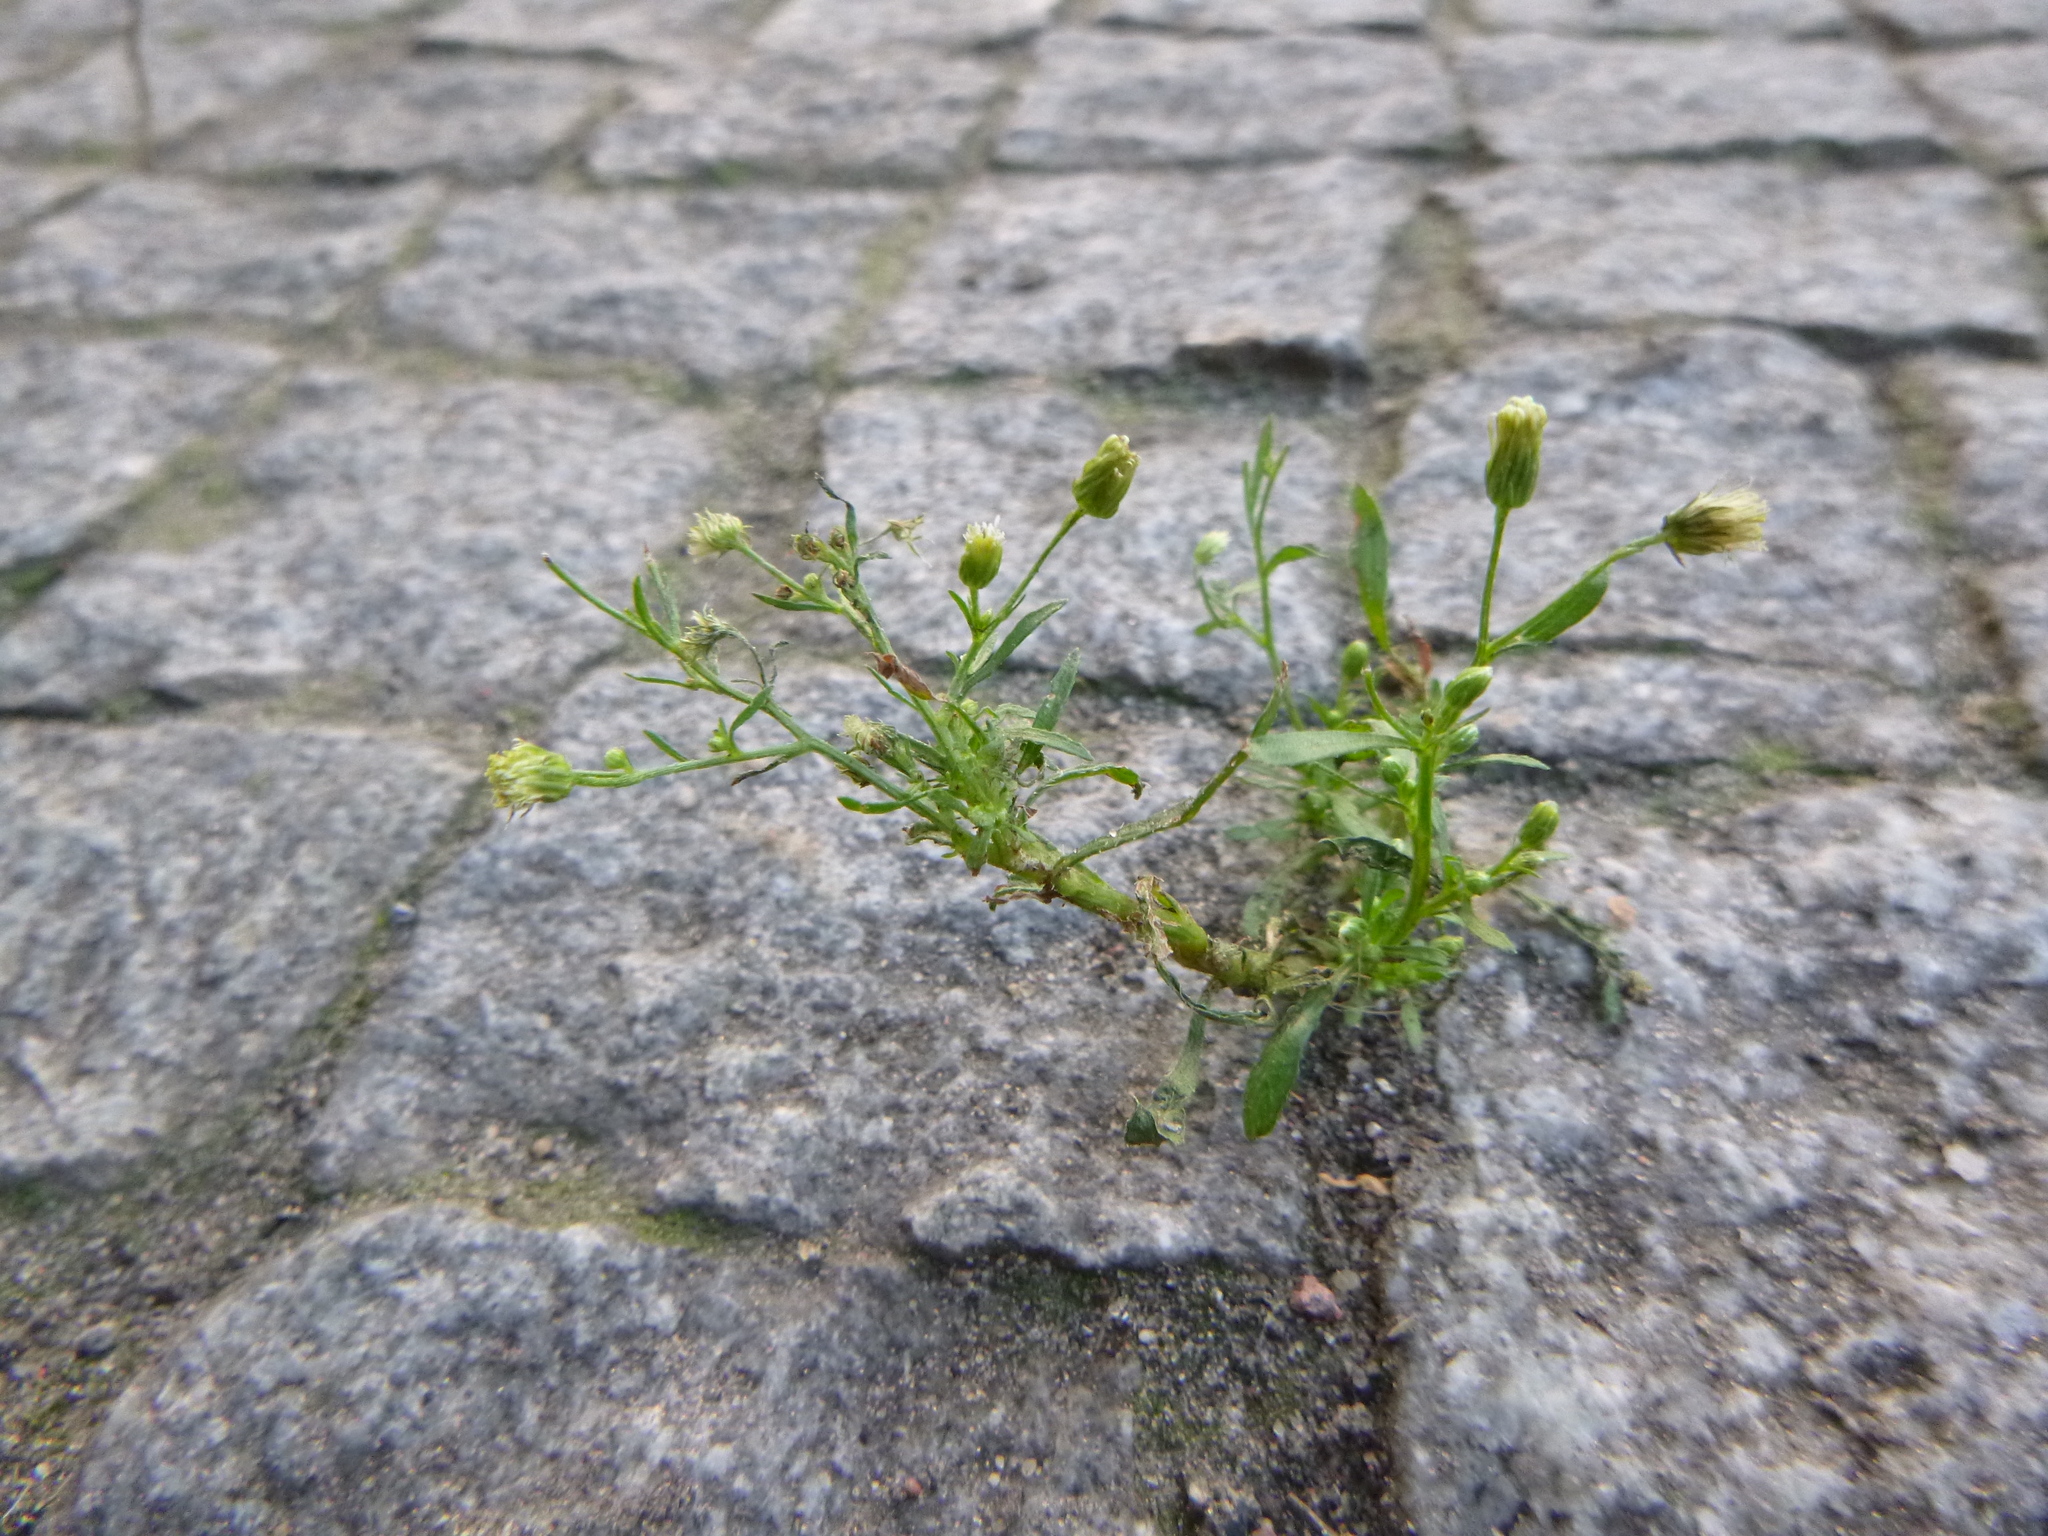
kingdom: Plantae
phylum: Tracheophyta
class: Magnoliopsida
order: Asterales
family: Asteraceae
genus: Erigeron
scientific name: Erigeron canadensis
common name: Canadian fleabane
